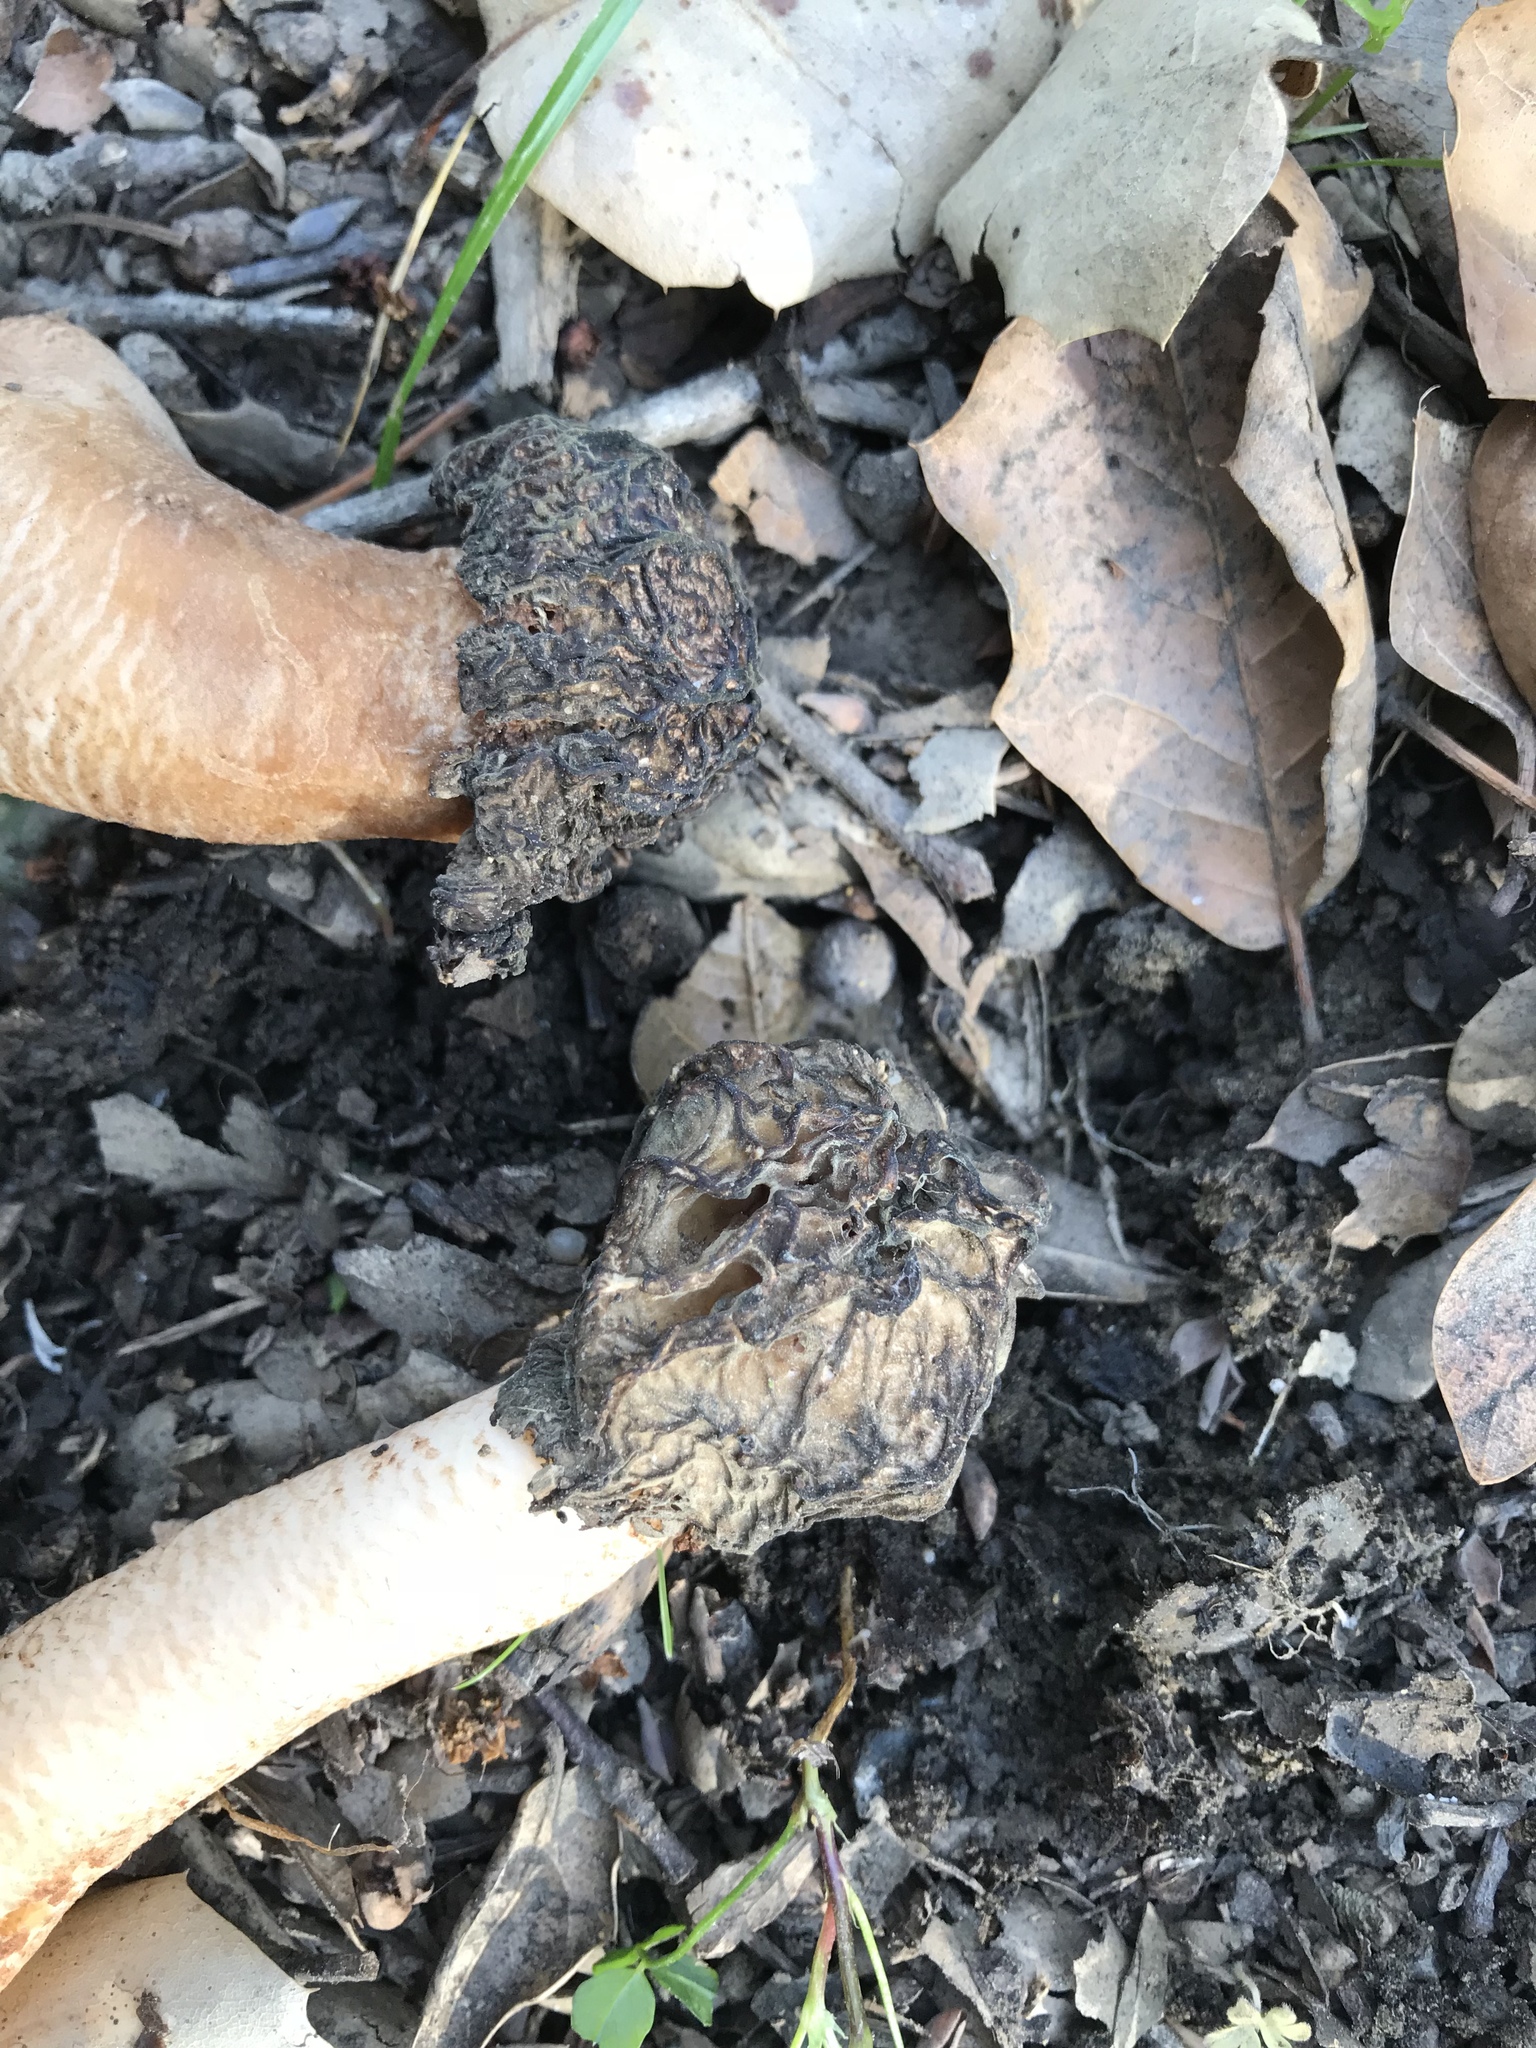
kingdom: Fungi
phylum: Ascomycota
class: Pezizomycetes
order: Pezizales
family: Morchellaceae
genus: Verpa
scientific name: Verpa bohemica
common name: Wrinkled thimble morel
